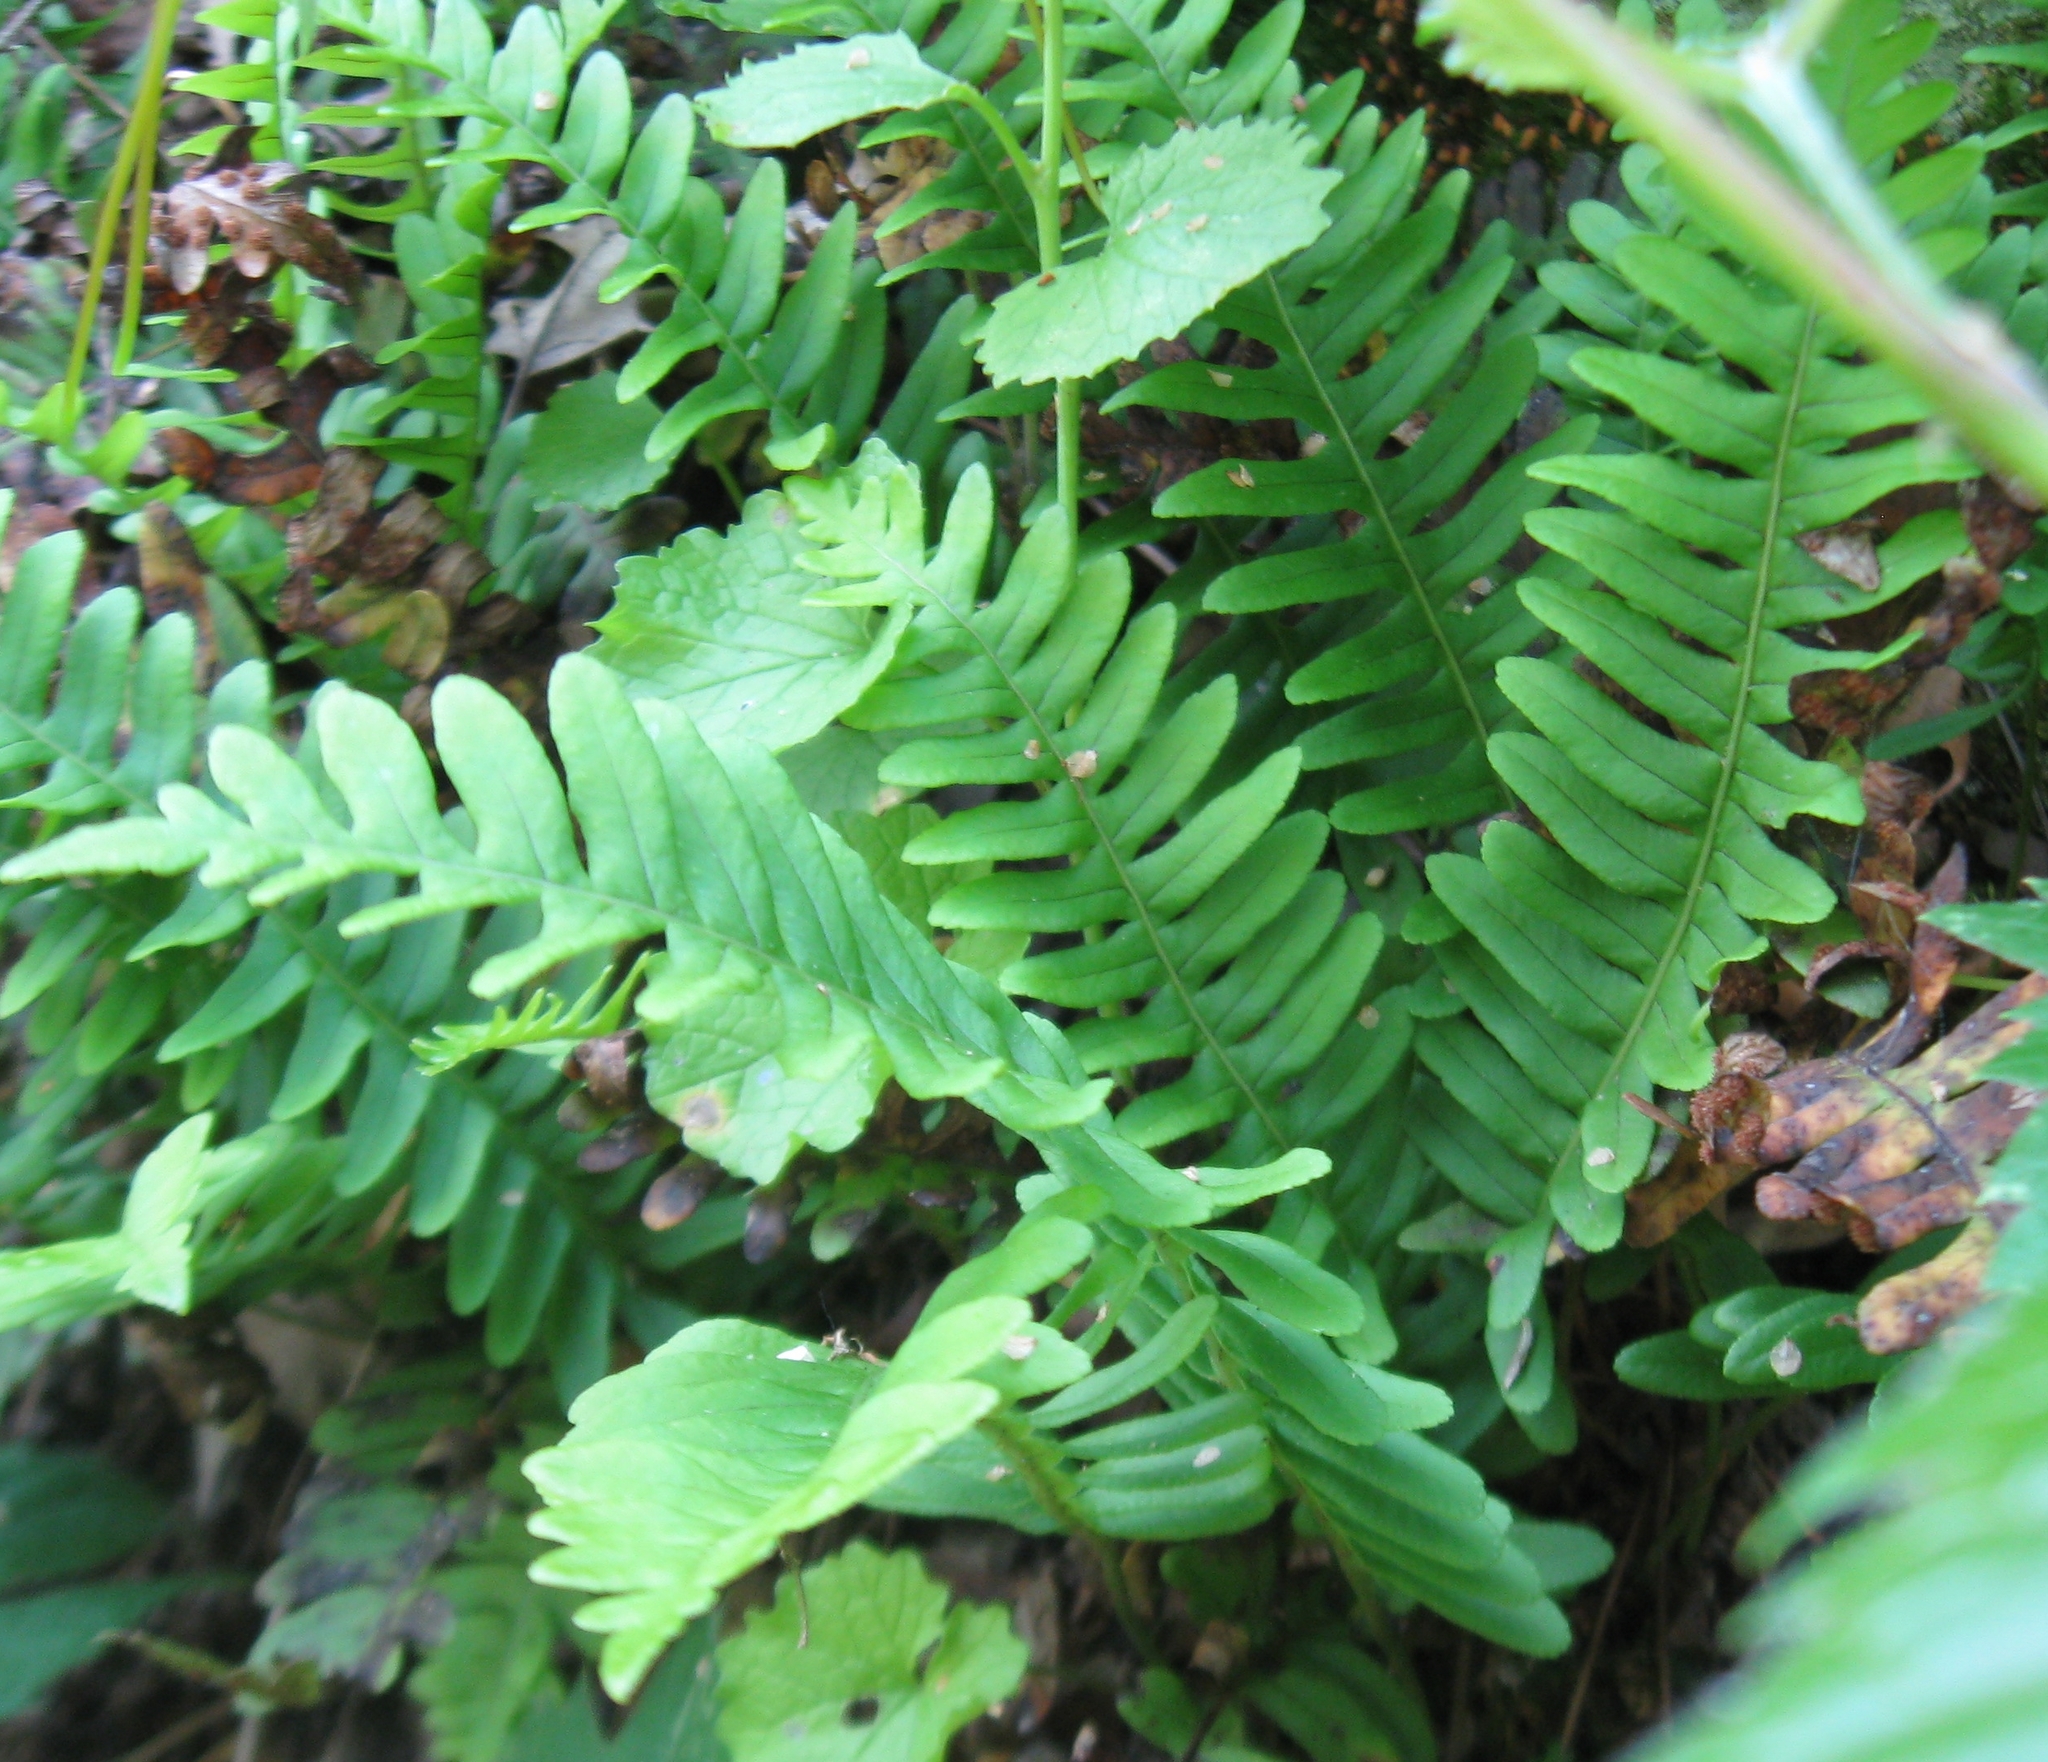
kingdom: Plantae
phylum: Tracheophyta
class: Polypodiopsida
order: Polypodiales
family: Polypodiaceae
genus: Polypodium
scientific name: Polypodium virginianum
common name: American wall fern
